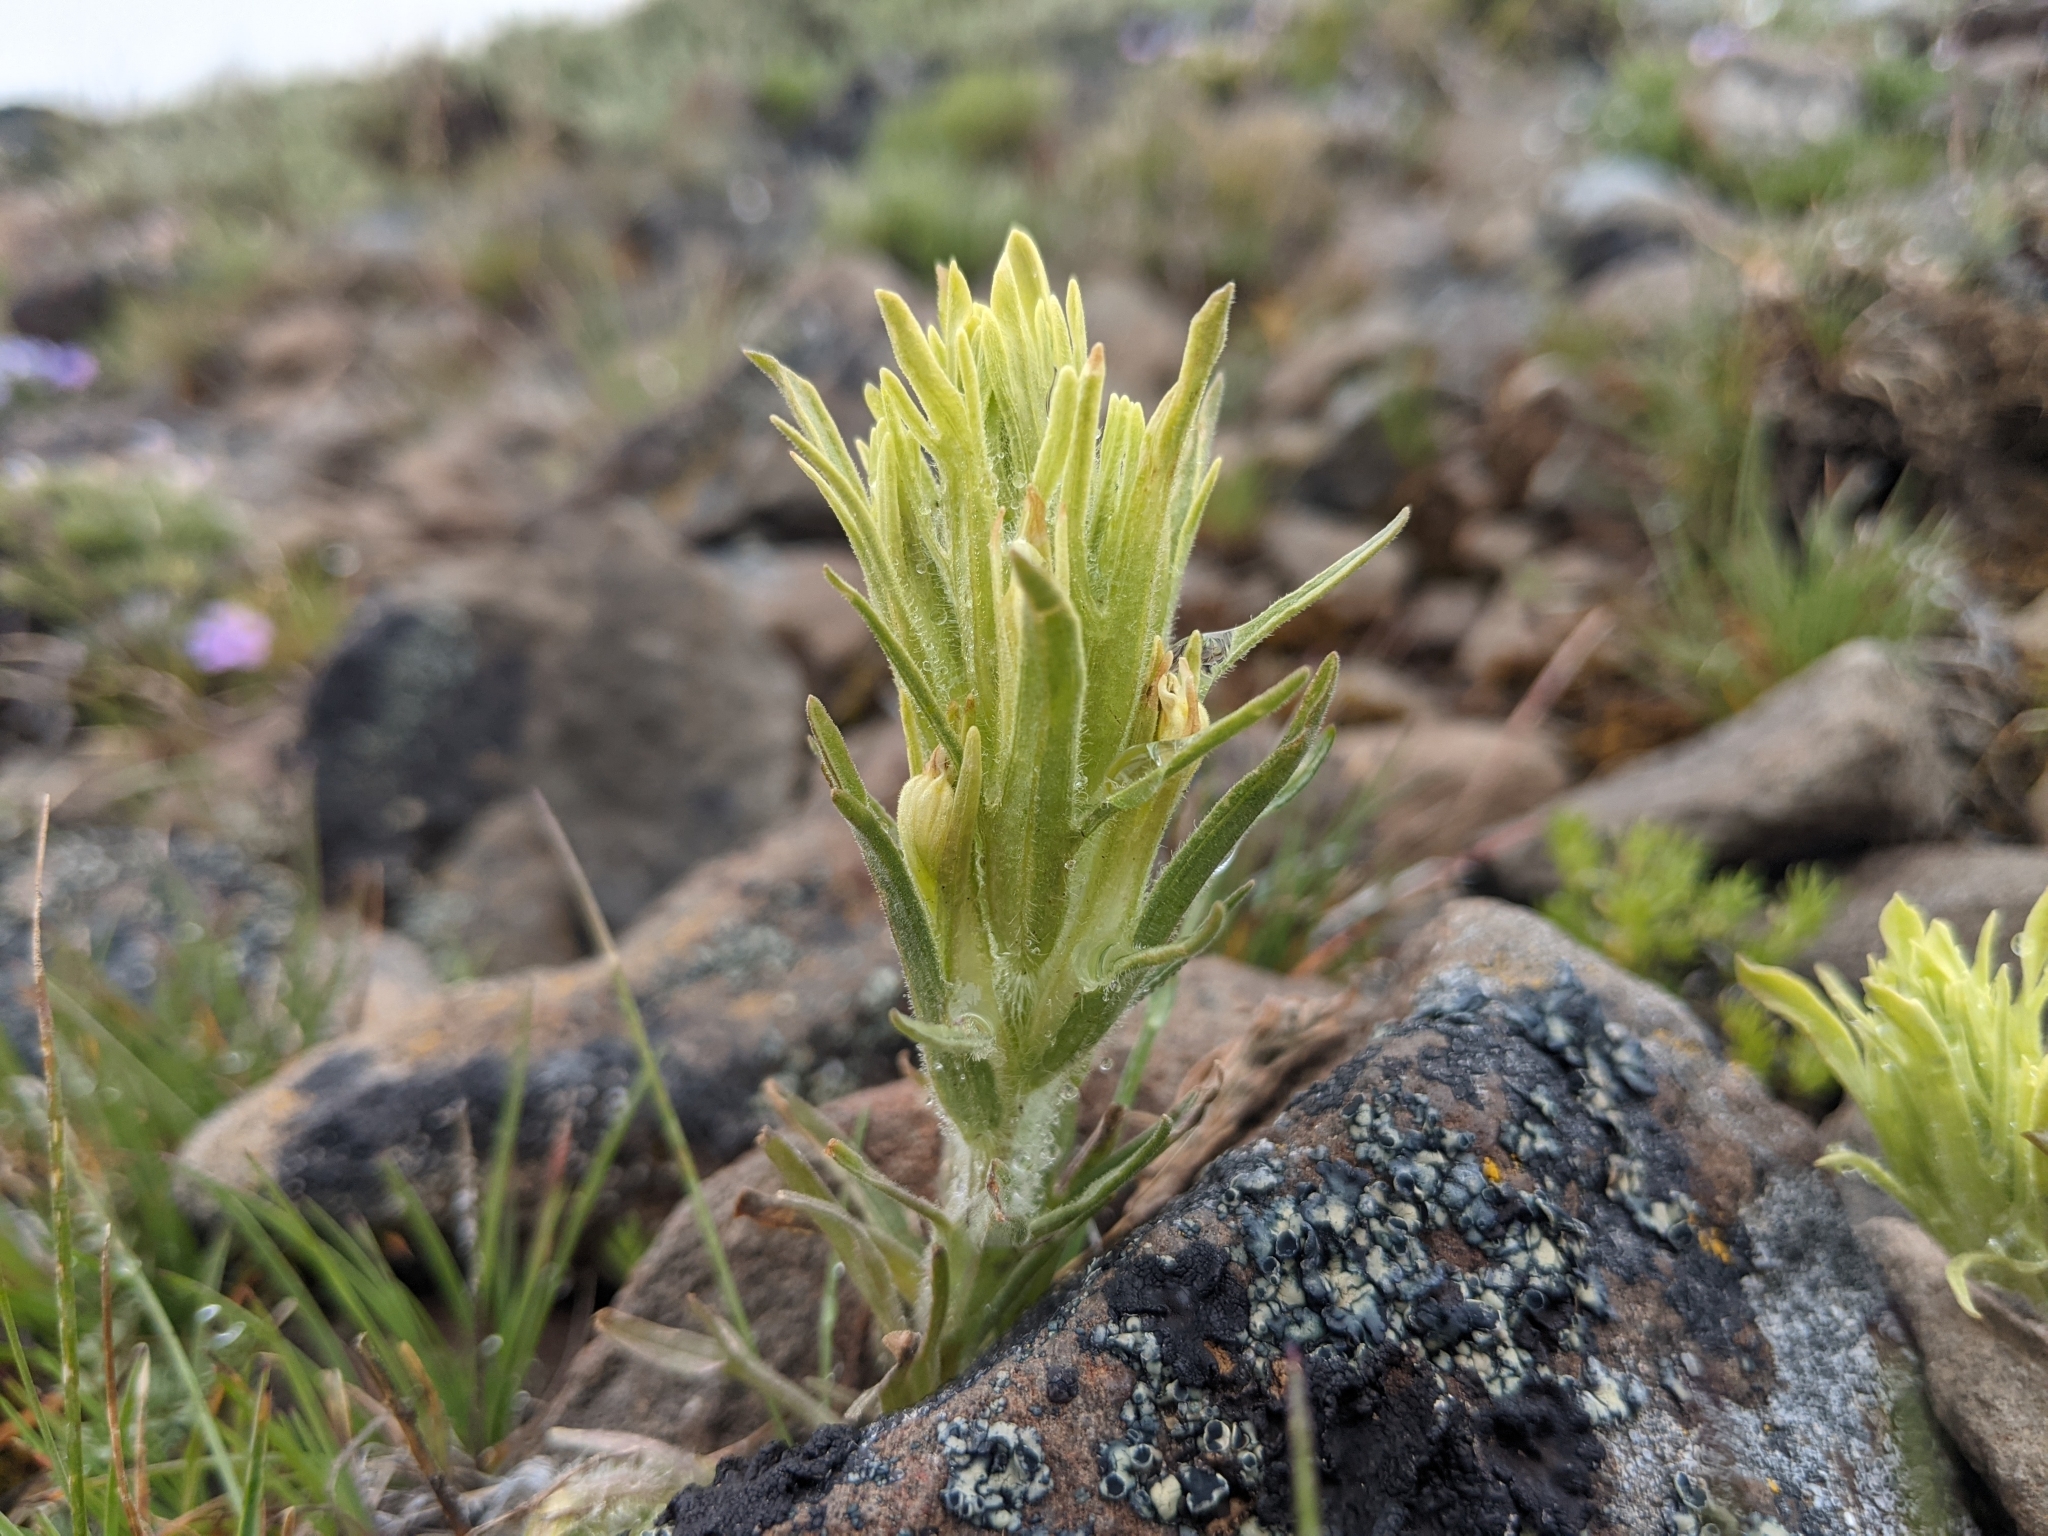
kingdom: Plantae
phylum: Tracheophyta
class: Magnoliopsida
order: Lamiales
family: Orobanchaceae
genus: Castilleja
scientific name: Castilleja oresbia
